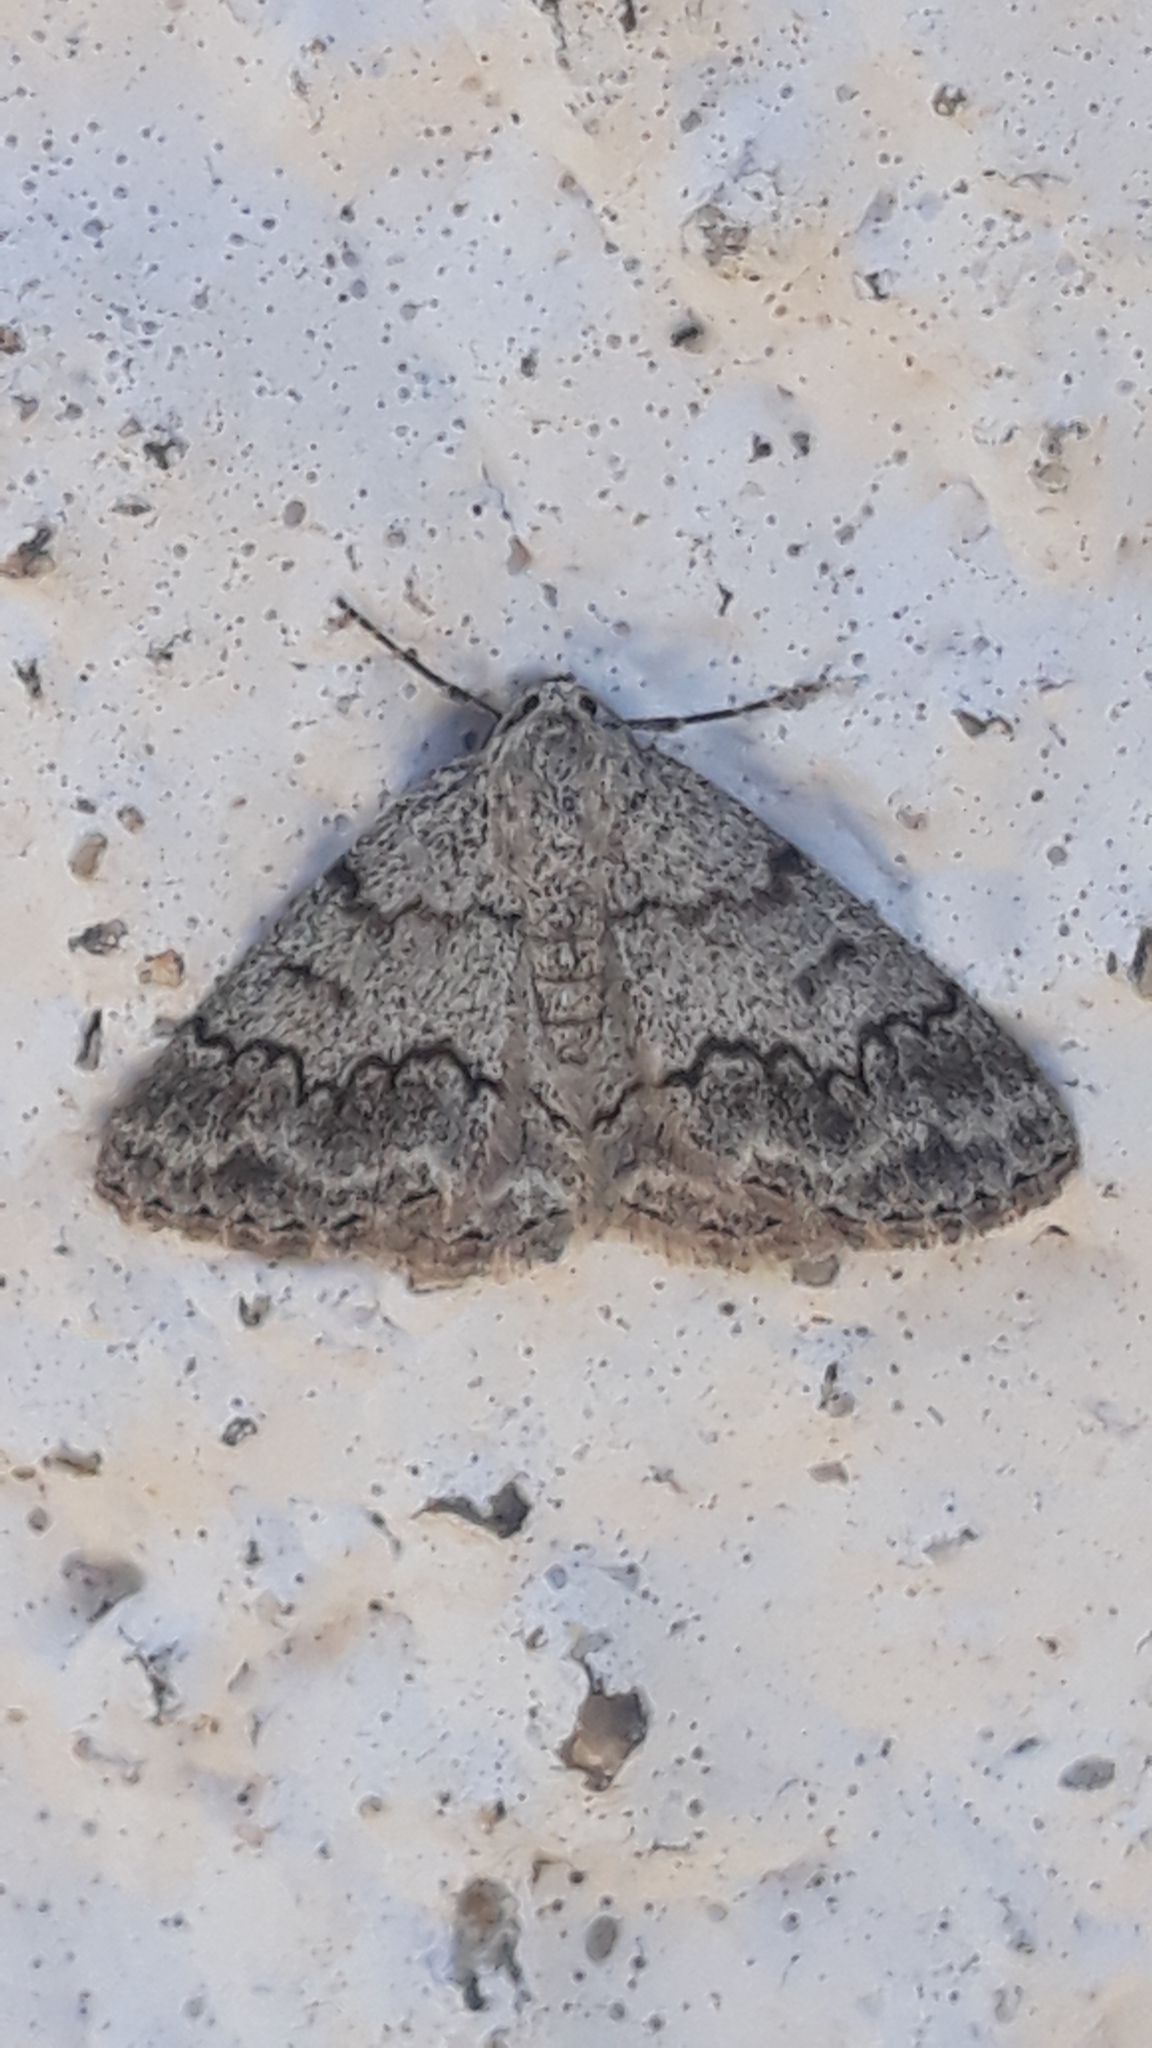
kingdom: Animalia
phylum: Arthropoda
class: Insecta
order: Lepidoptera
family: Geometridae
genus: Pseudoterpna
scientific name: Pseudoterpna coronillaria
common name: Jersey emerald
